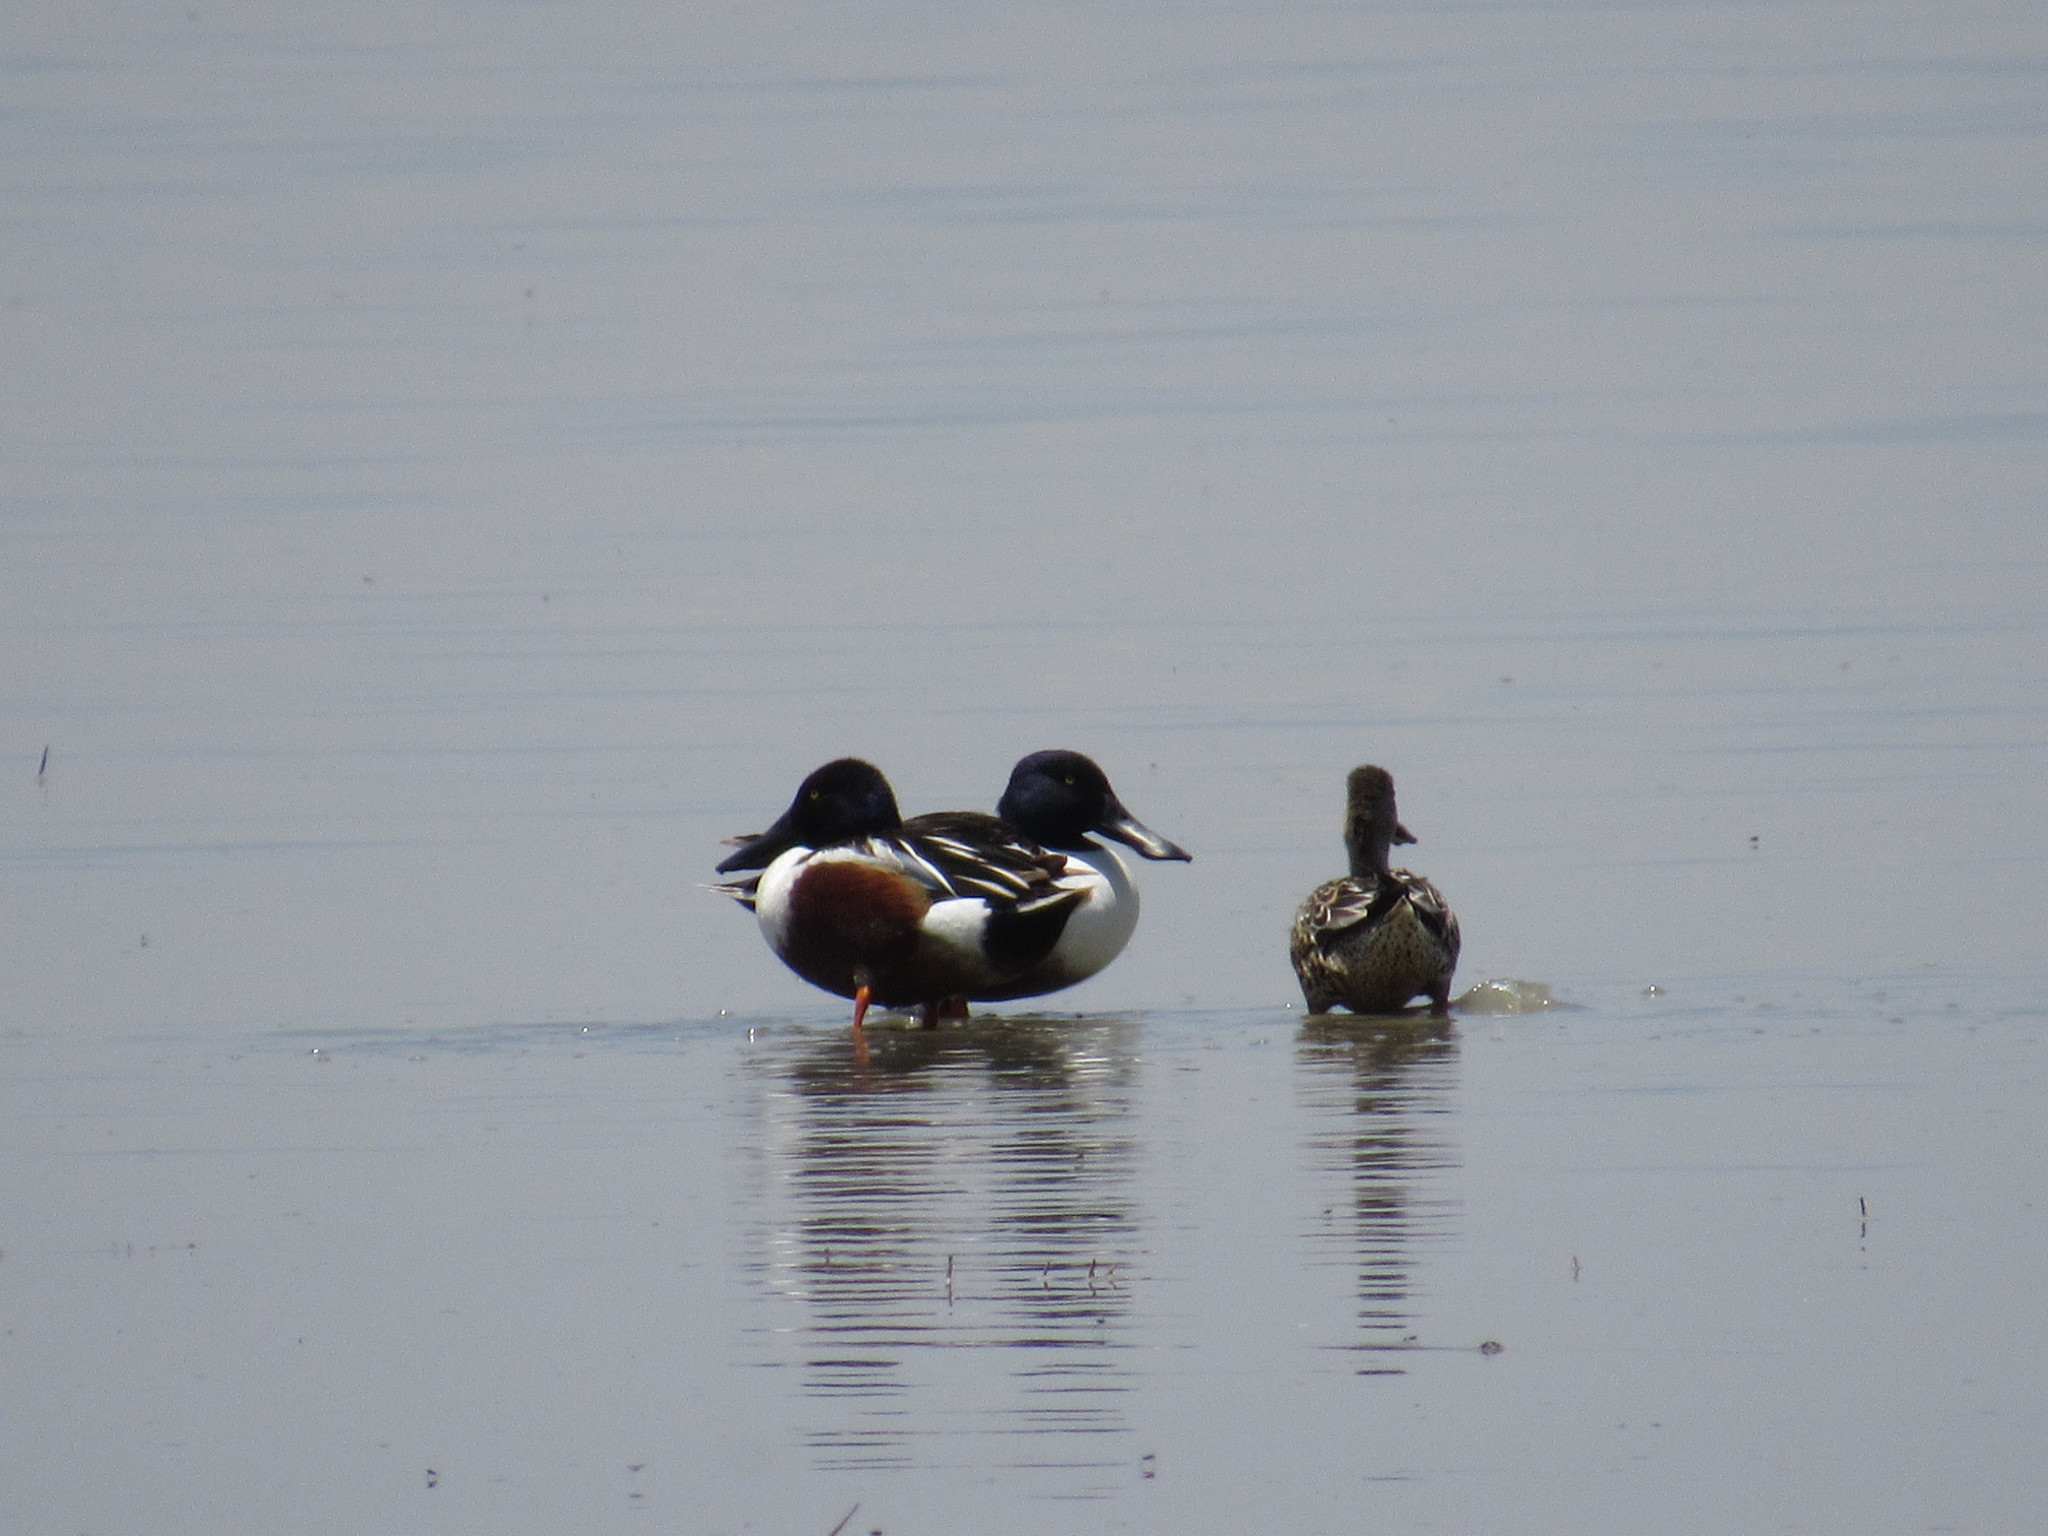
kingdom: Animalia
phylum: Chordata
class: Aves
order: Anseriformes
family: Anatidae
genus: Spatula
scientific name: Spatula clypeata
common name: Northern shoveler
